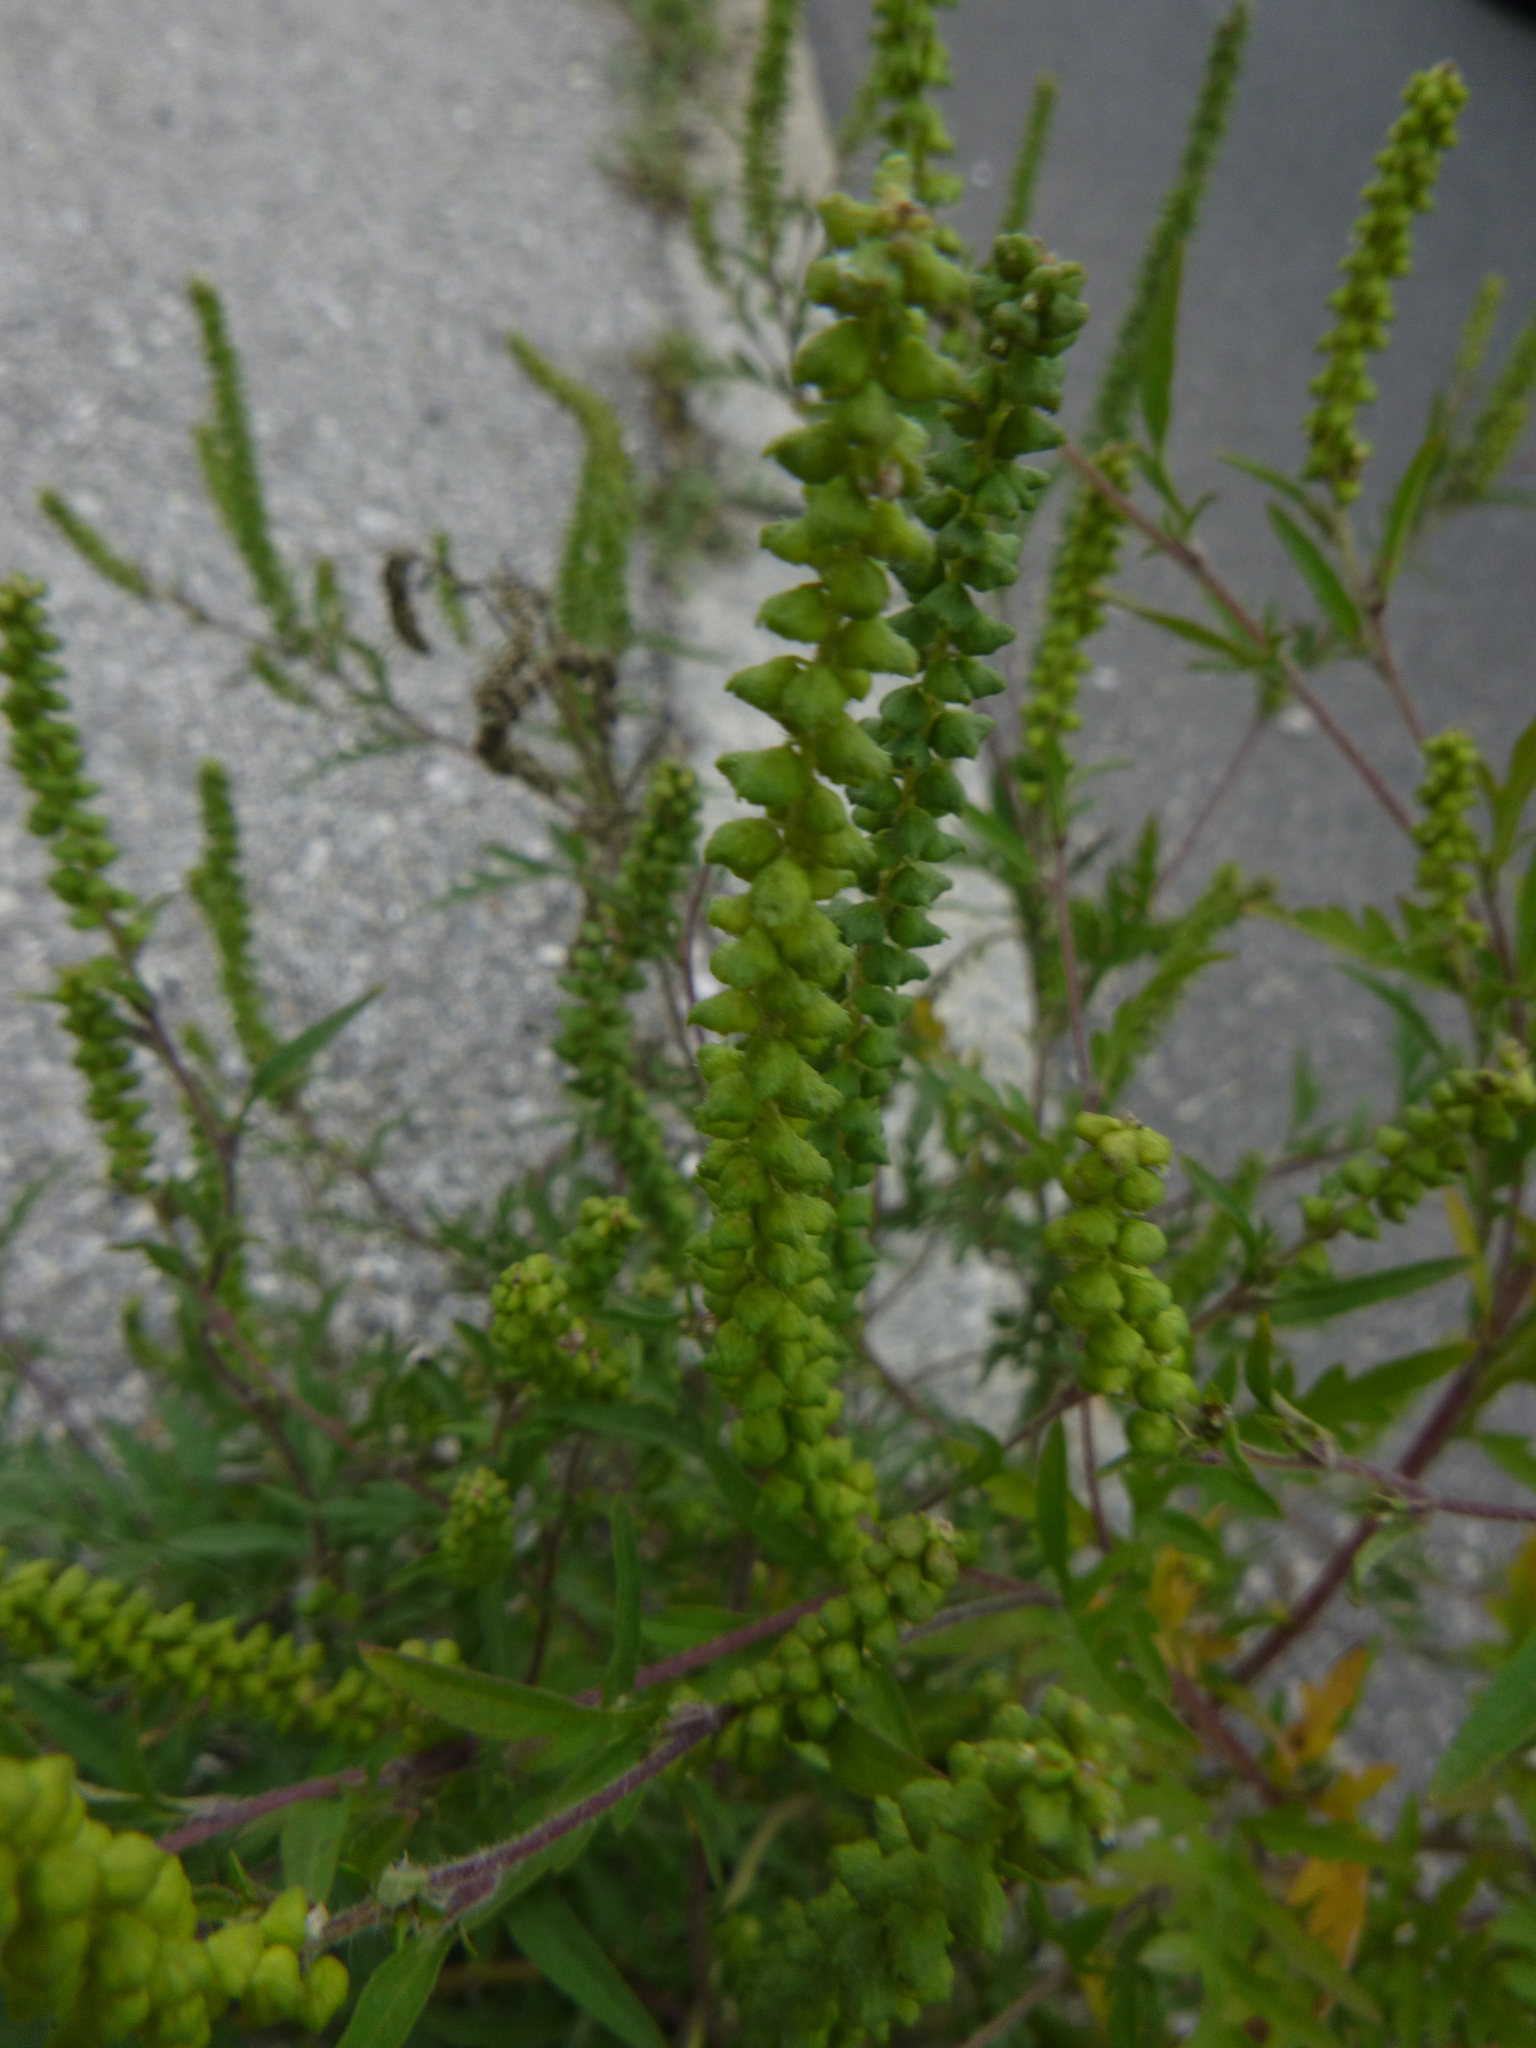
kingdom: Plantae
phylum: Tracheophyta
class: Magnoliopsida
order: Asterales
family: Asteraceae
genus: Ambrosia
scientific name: Ambrosia artemisiifolia
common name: Annual ragweed
